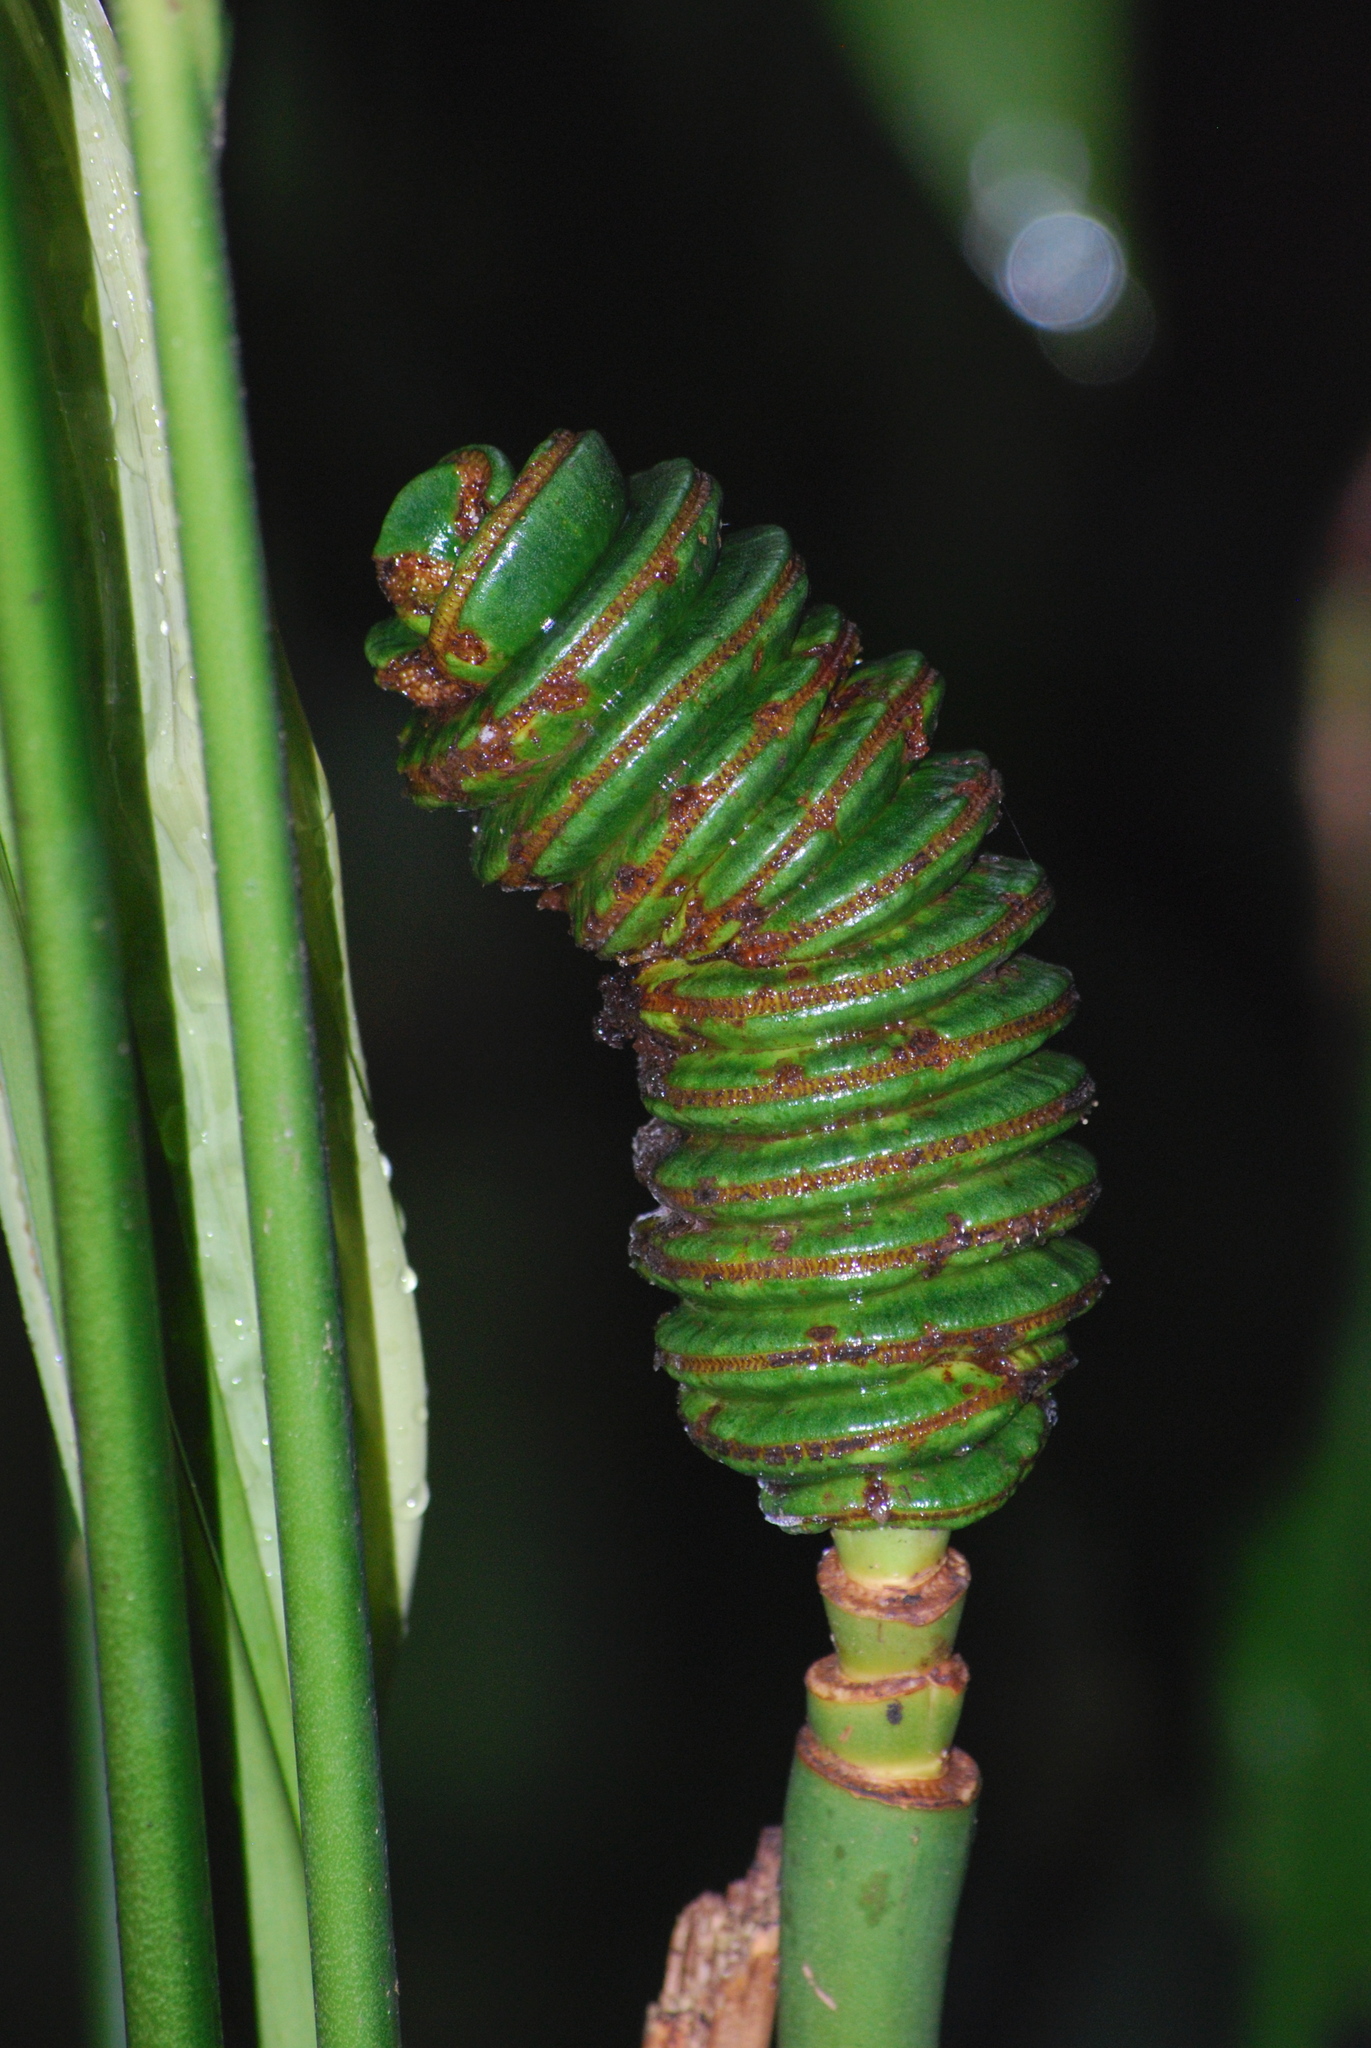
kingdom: Plantae
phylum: Tracheophyta
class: Liliopsida
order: Pandanales
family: Cyclanthaceae
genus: Cyclanthus
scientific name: Cyclanthus bipartitus
